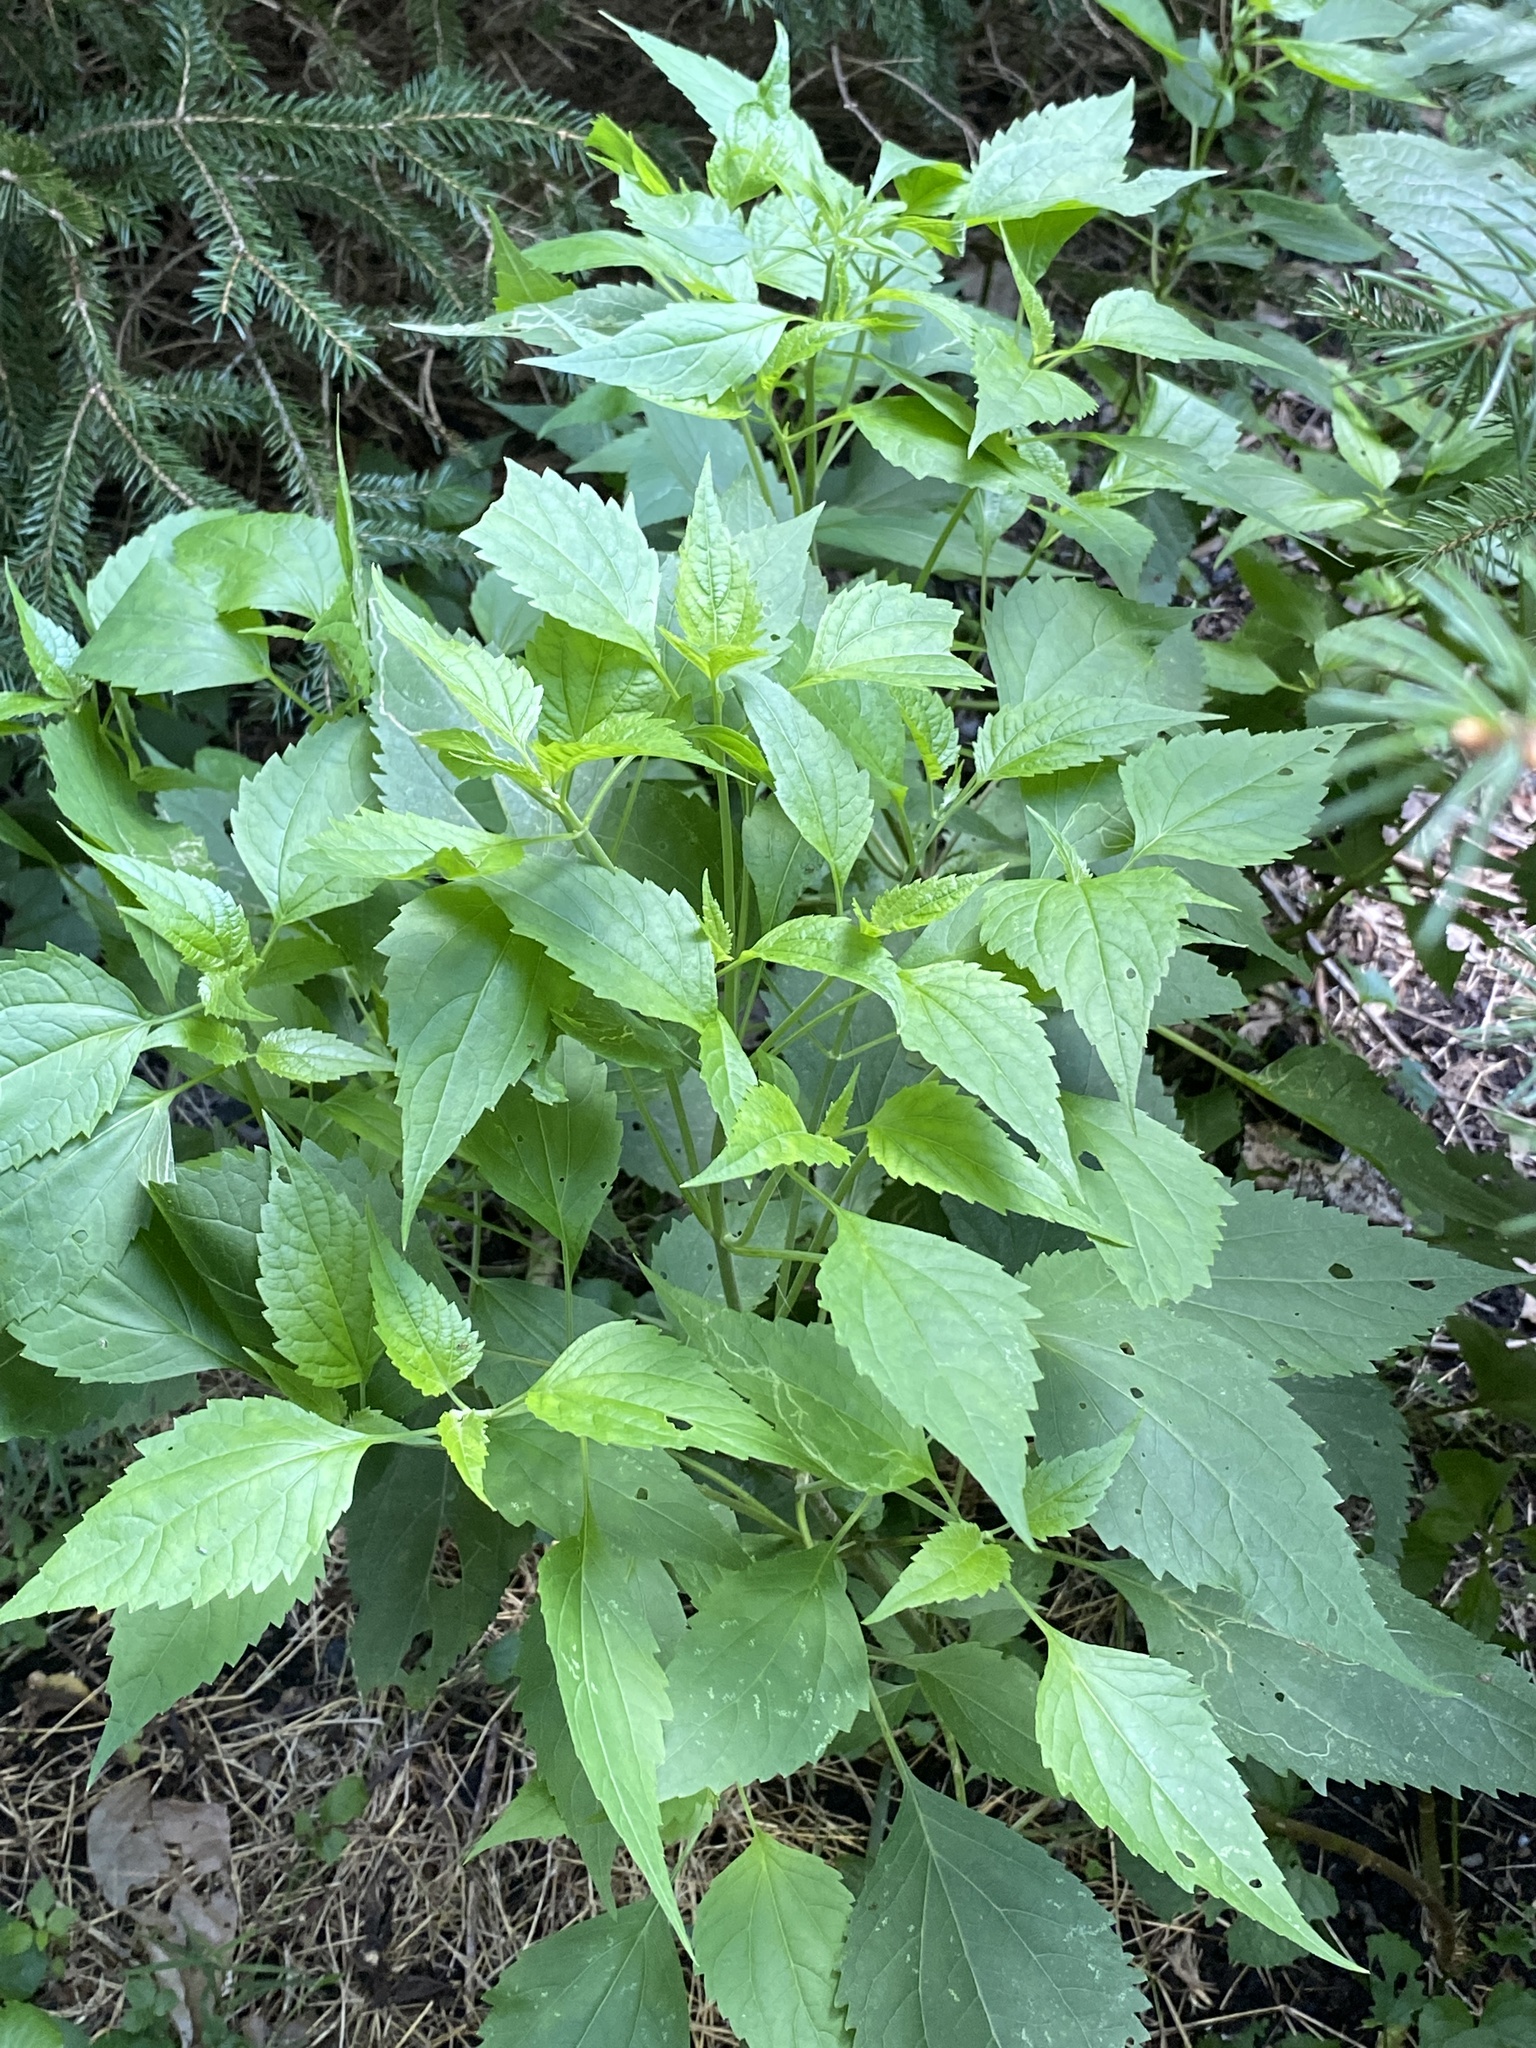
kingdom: Plantae
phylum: Tracheophyta
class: Magnoliopsida
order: Asterales
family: Asteraceae
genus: Ageratina
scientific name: Ageratina altissima
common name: White snakeroot
